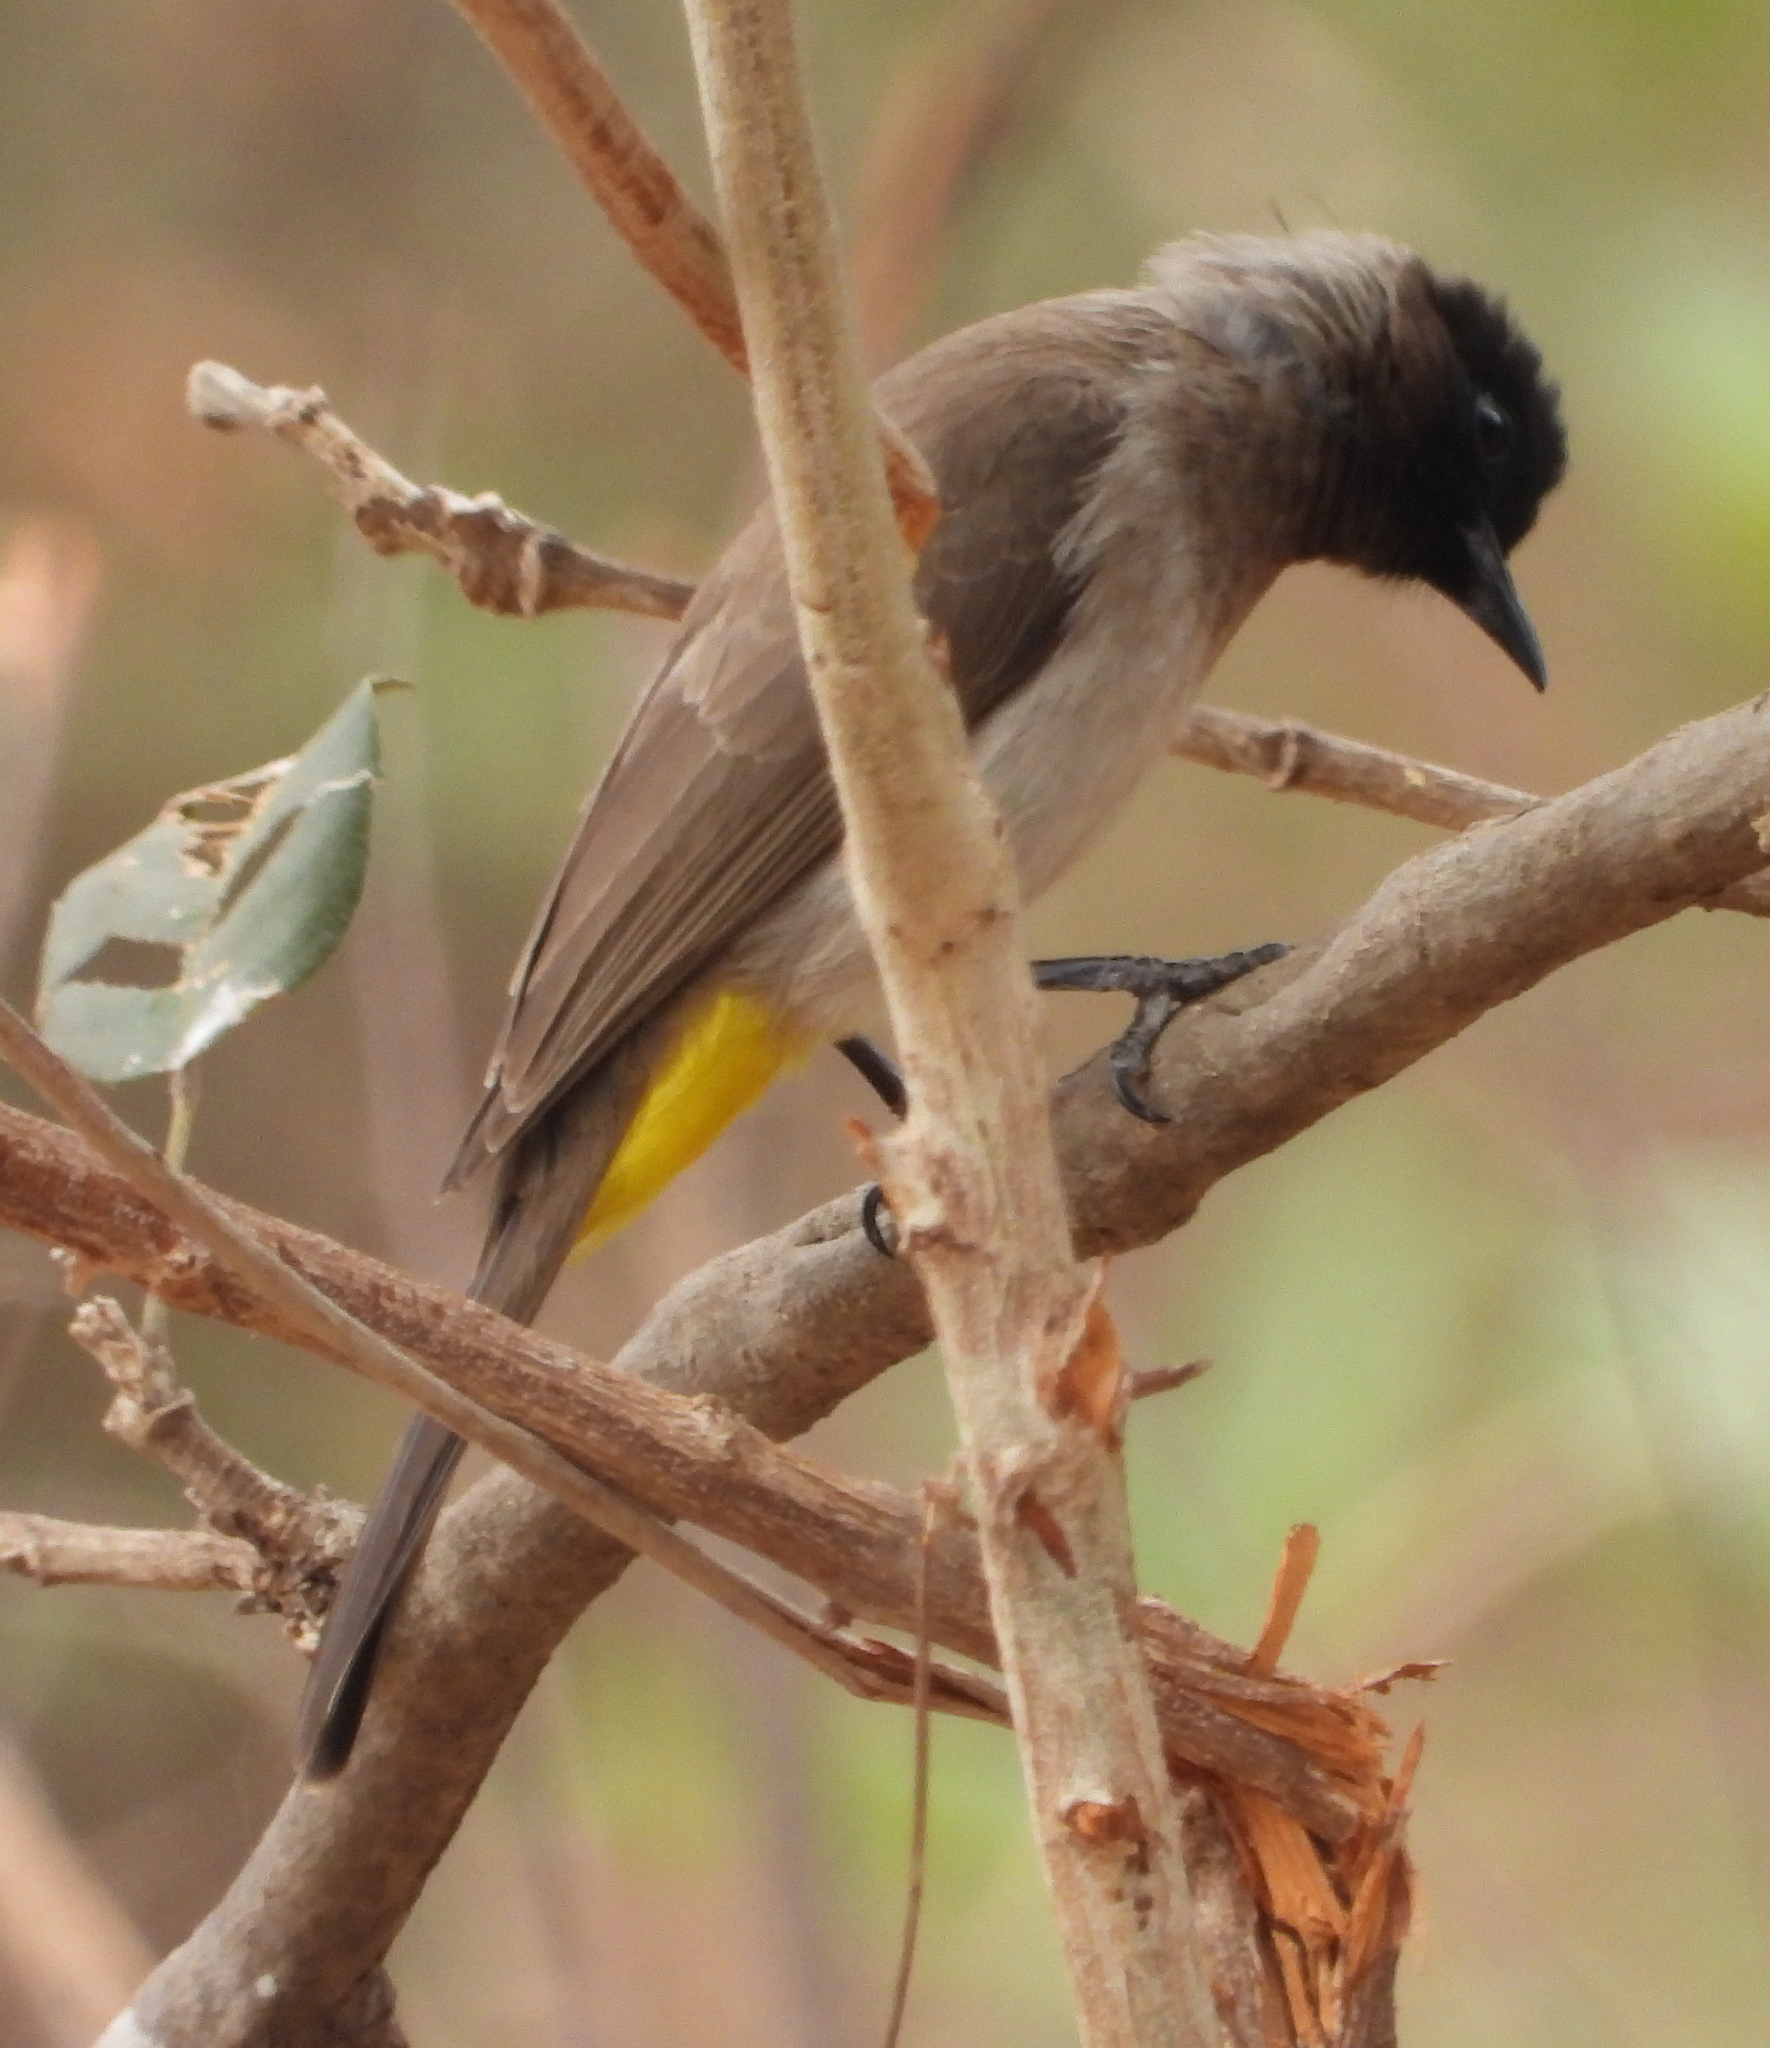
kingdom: Animalia
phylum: Chordata
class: Aves
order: Passeriformes
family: Pycnonotidae
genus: Pycnonotus
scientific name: Pycnonotus barbatus
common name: Common bulbul
